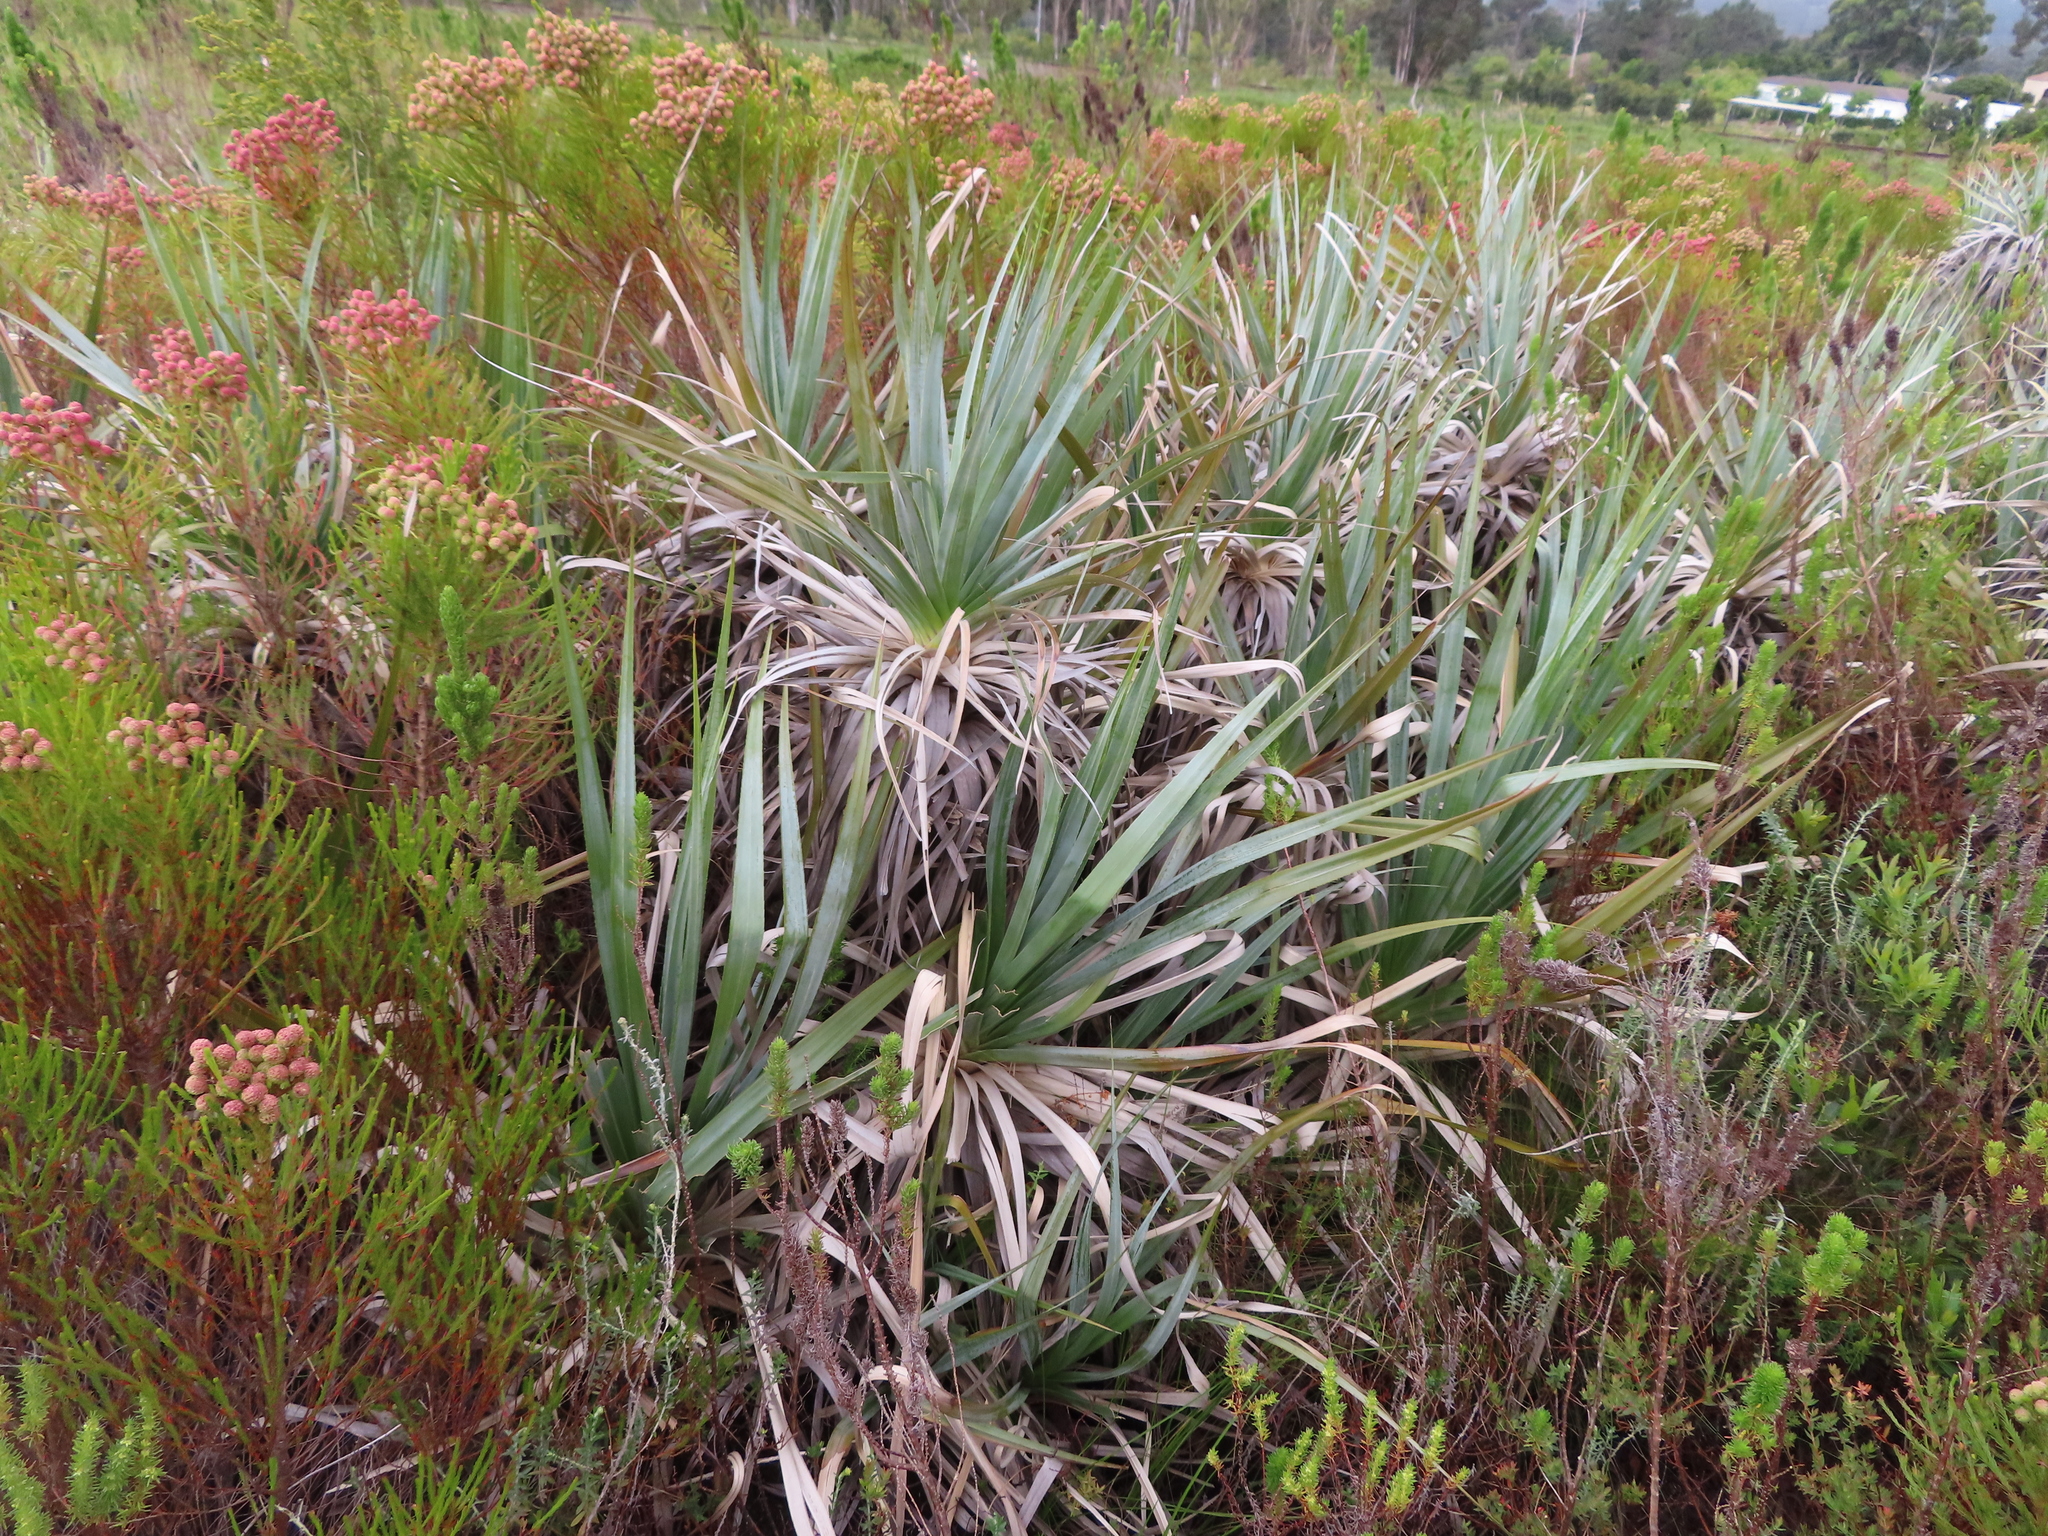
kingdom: Plantae
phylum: Tracheophyta
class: Liliopsida
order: Poales
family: Thurniaceae
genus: Prionium
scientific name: Prionium serratum
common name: Palmiet
